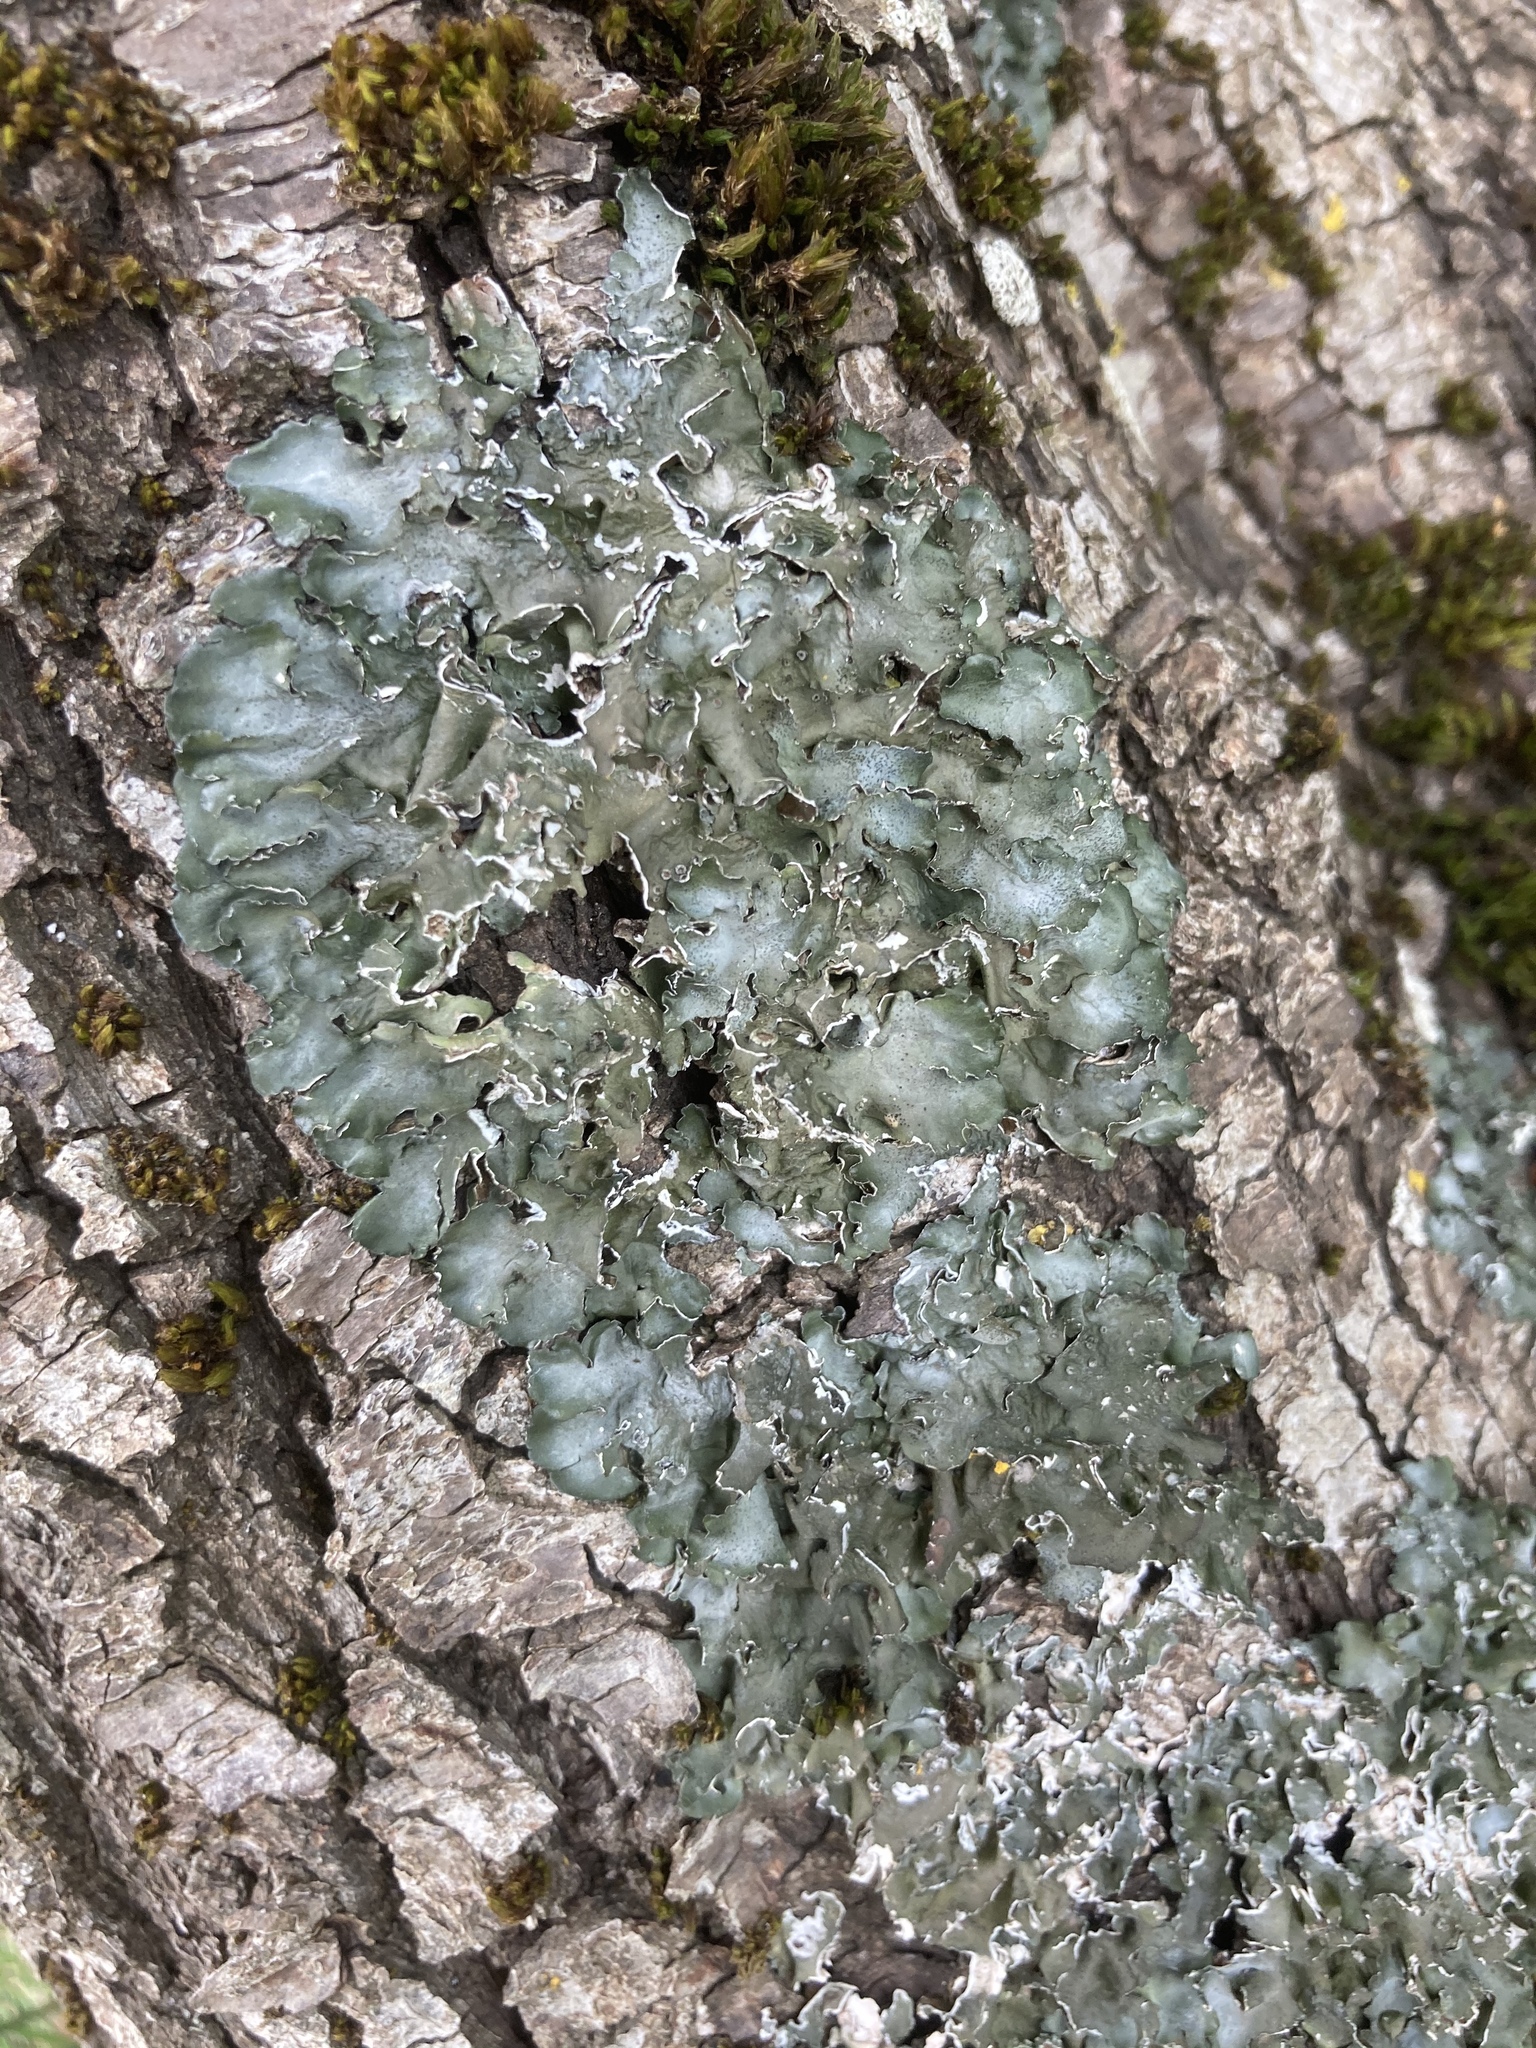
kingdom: Fungi
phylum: Ascomycota
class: Lecanoromycetes
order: Lecanorales
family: Parmeliaceae
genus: Pleurosticta
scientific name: Pleurosticta acetabulum
